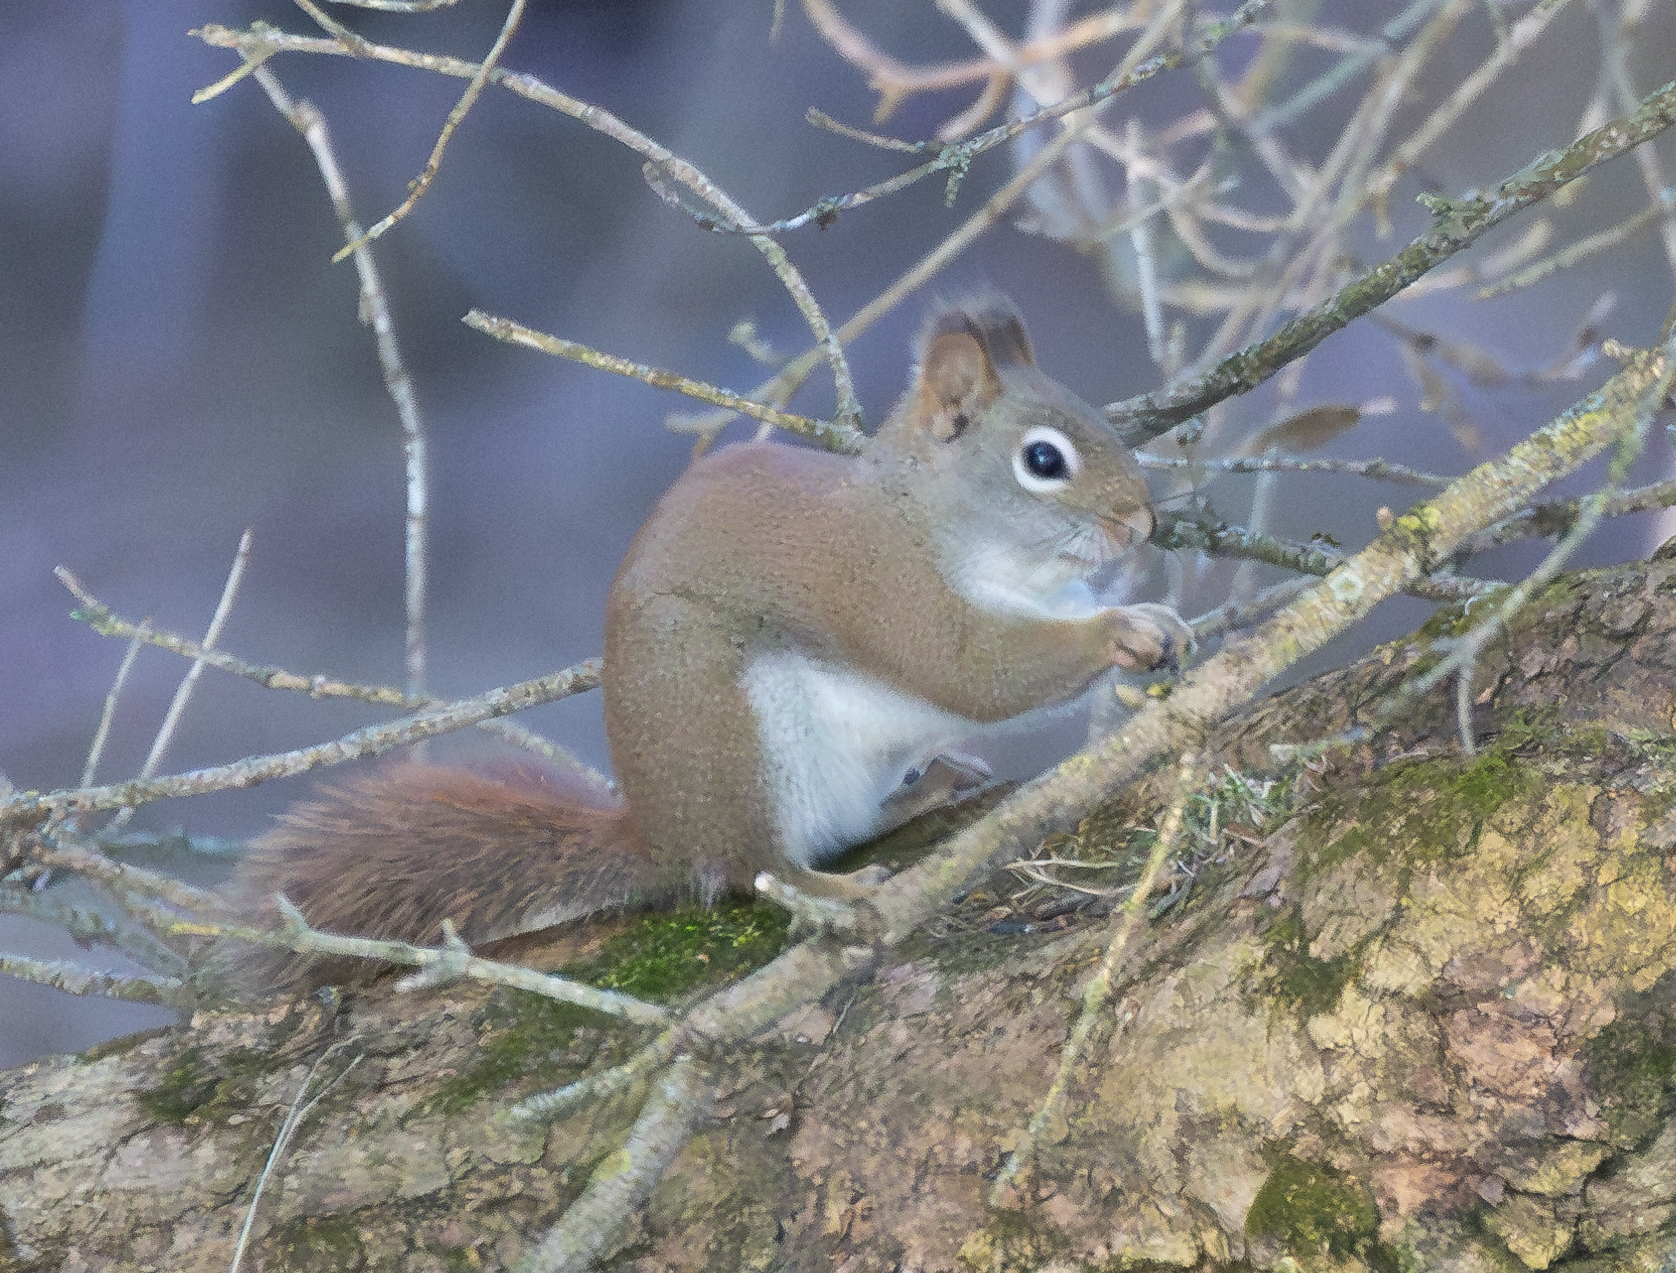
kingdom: Animalia
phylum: Chordata
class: Mammalia
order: Rodentia
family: Sciuridae
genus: Tamiasciurus
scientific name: Tamiasciurus hudsonicus
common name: Red squirrel
